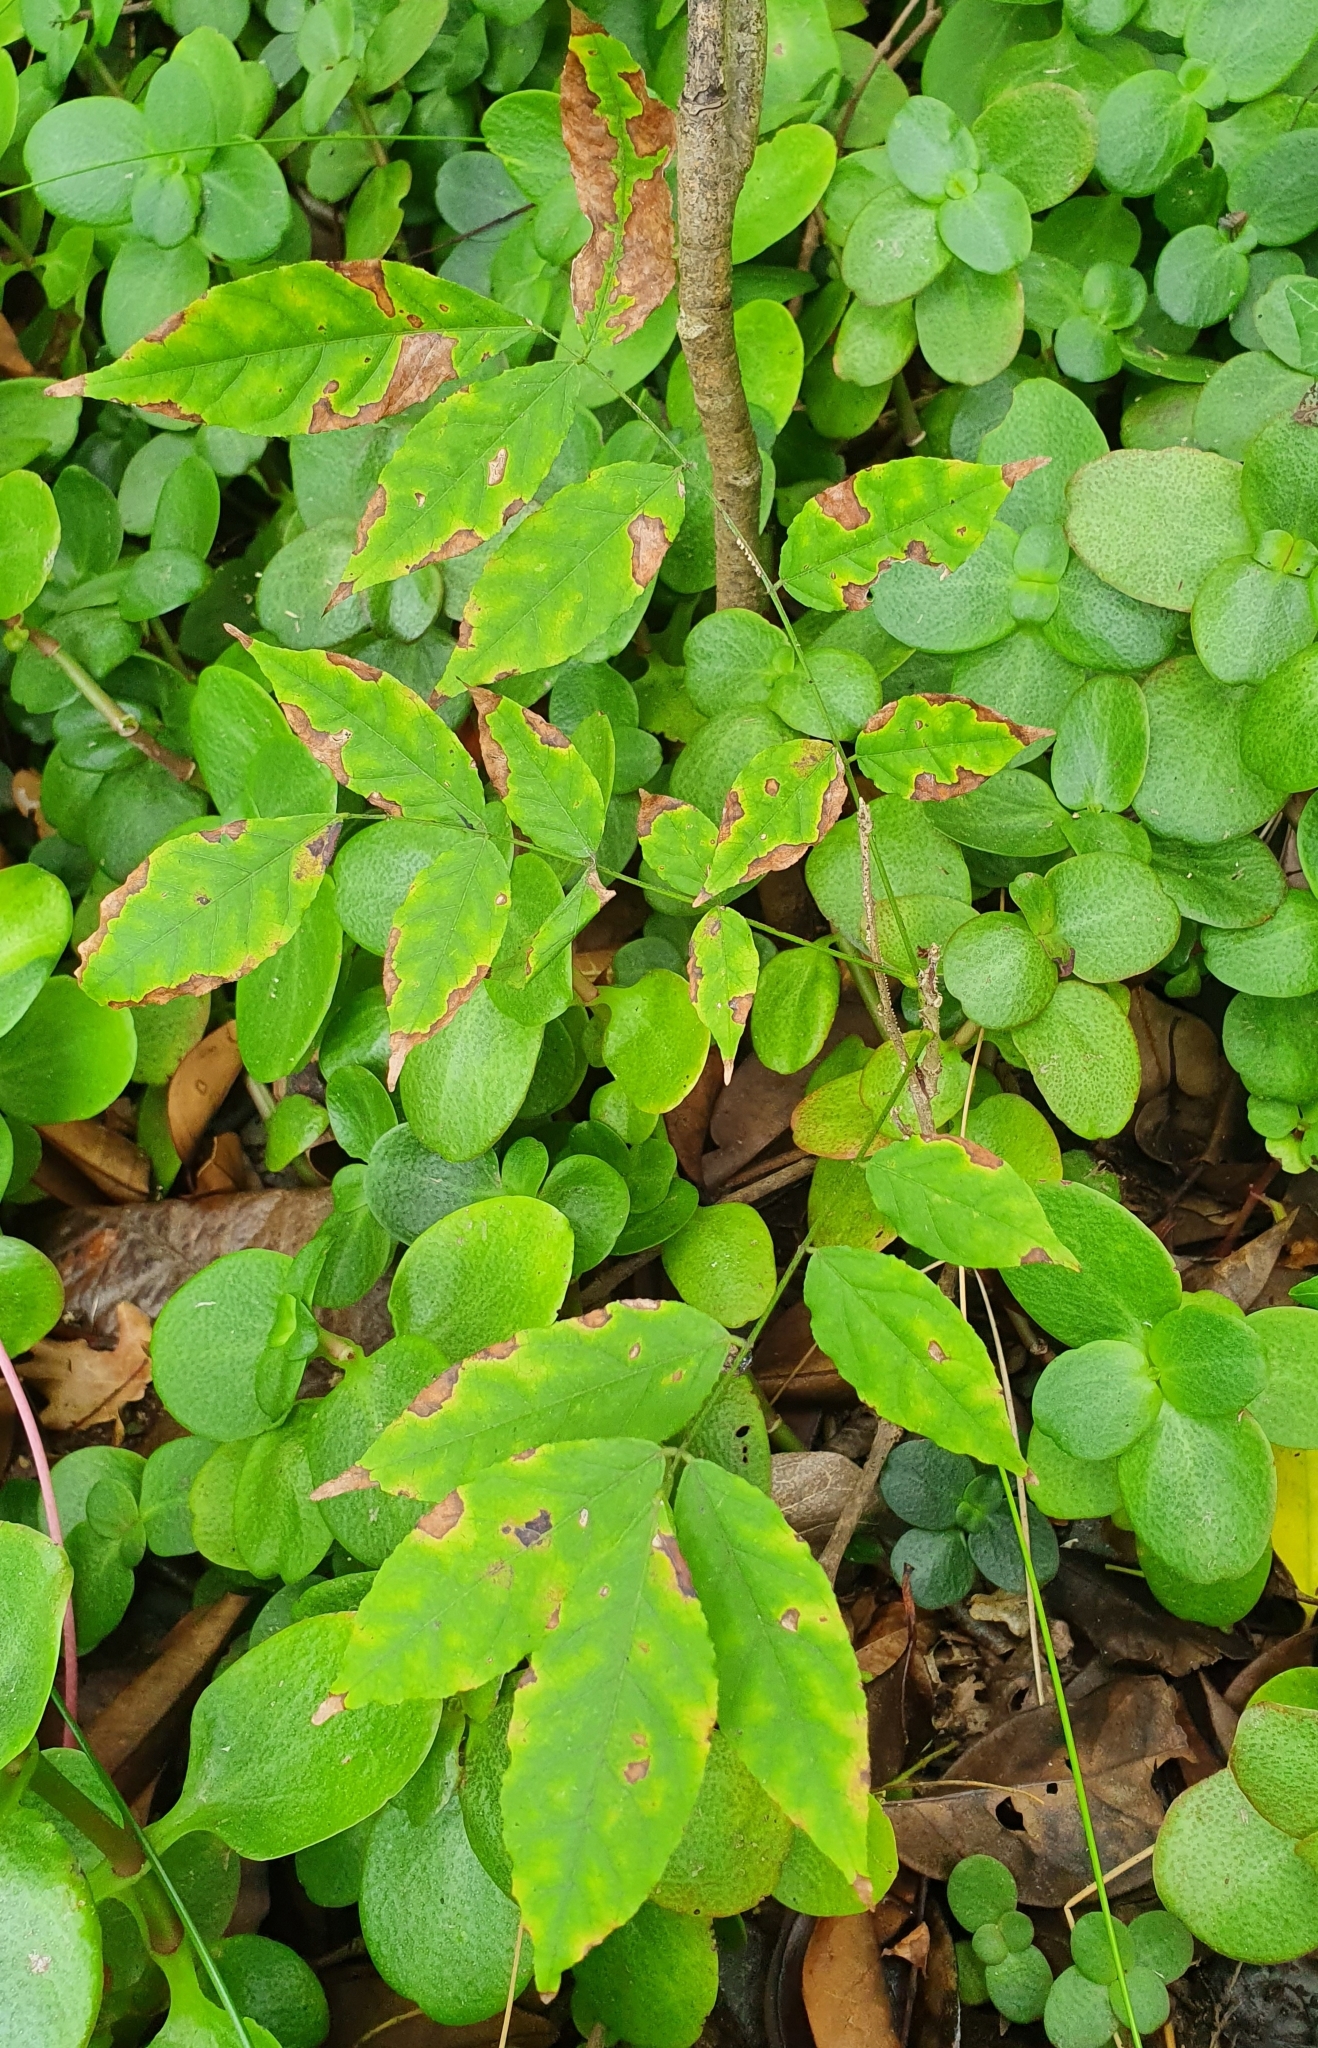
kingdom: Plantae
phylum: Tracheophyta
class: Magnoliopsida
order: Sapindales
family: Sapindaceae
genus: Acer
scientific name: Acer negundo
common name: Ashleaf maple
